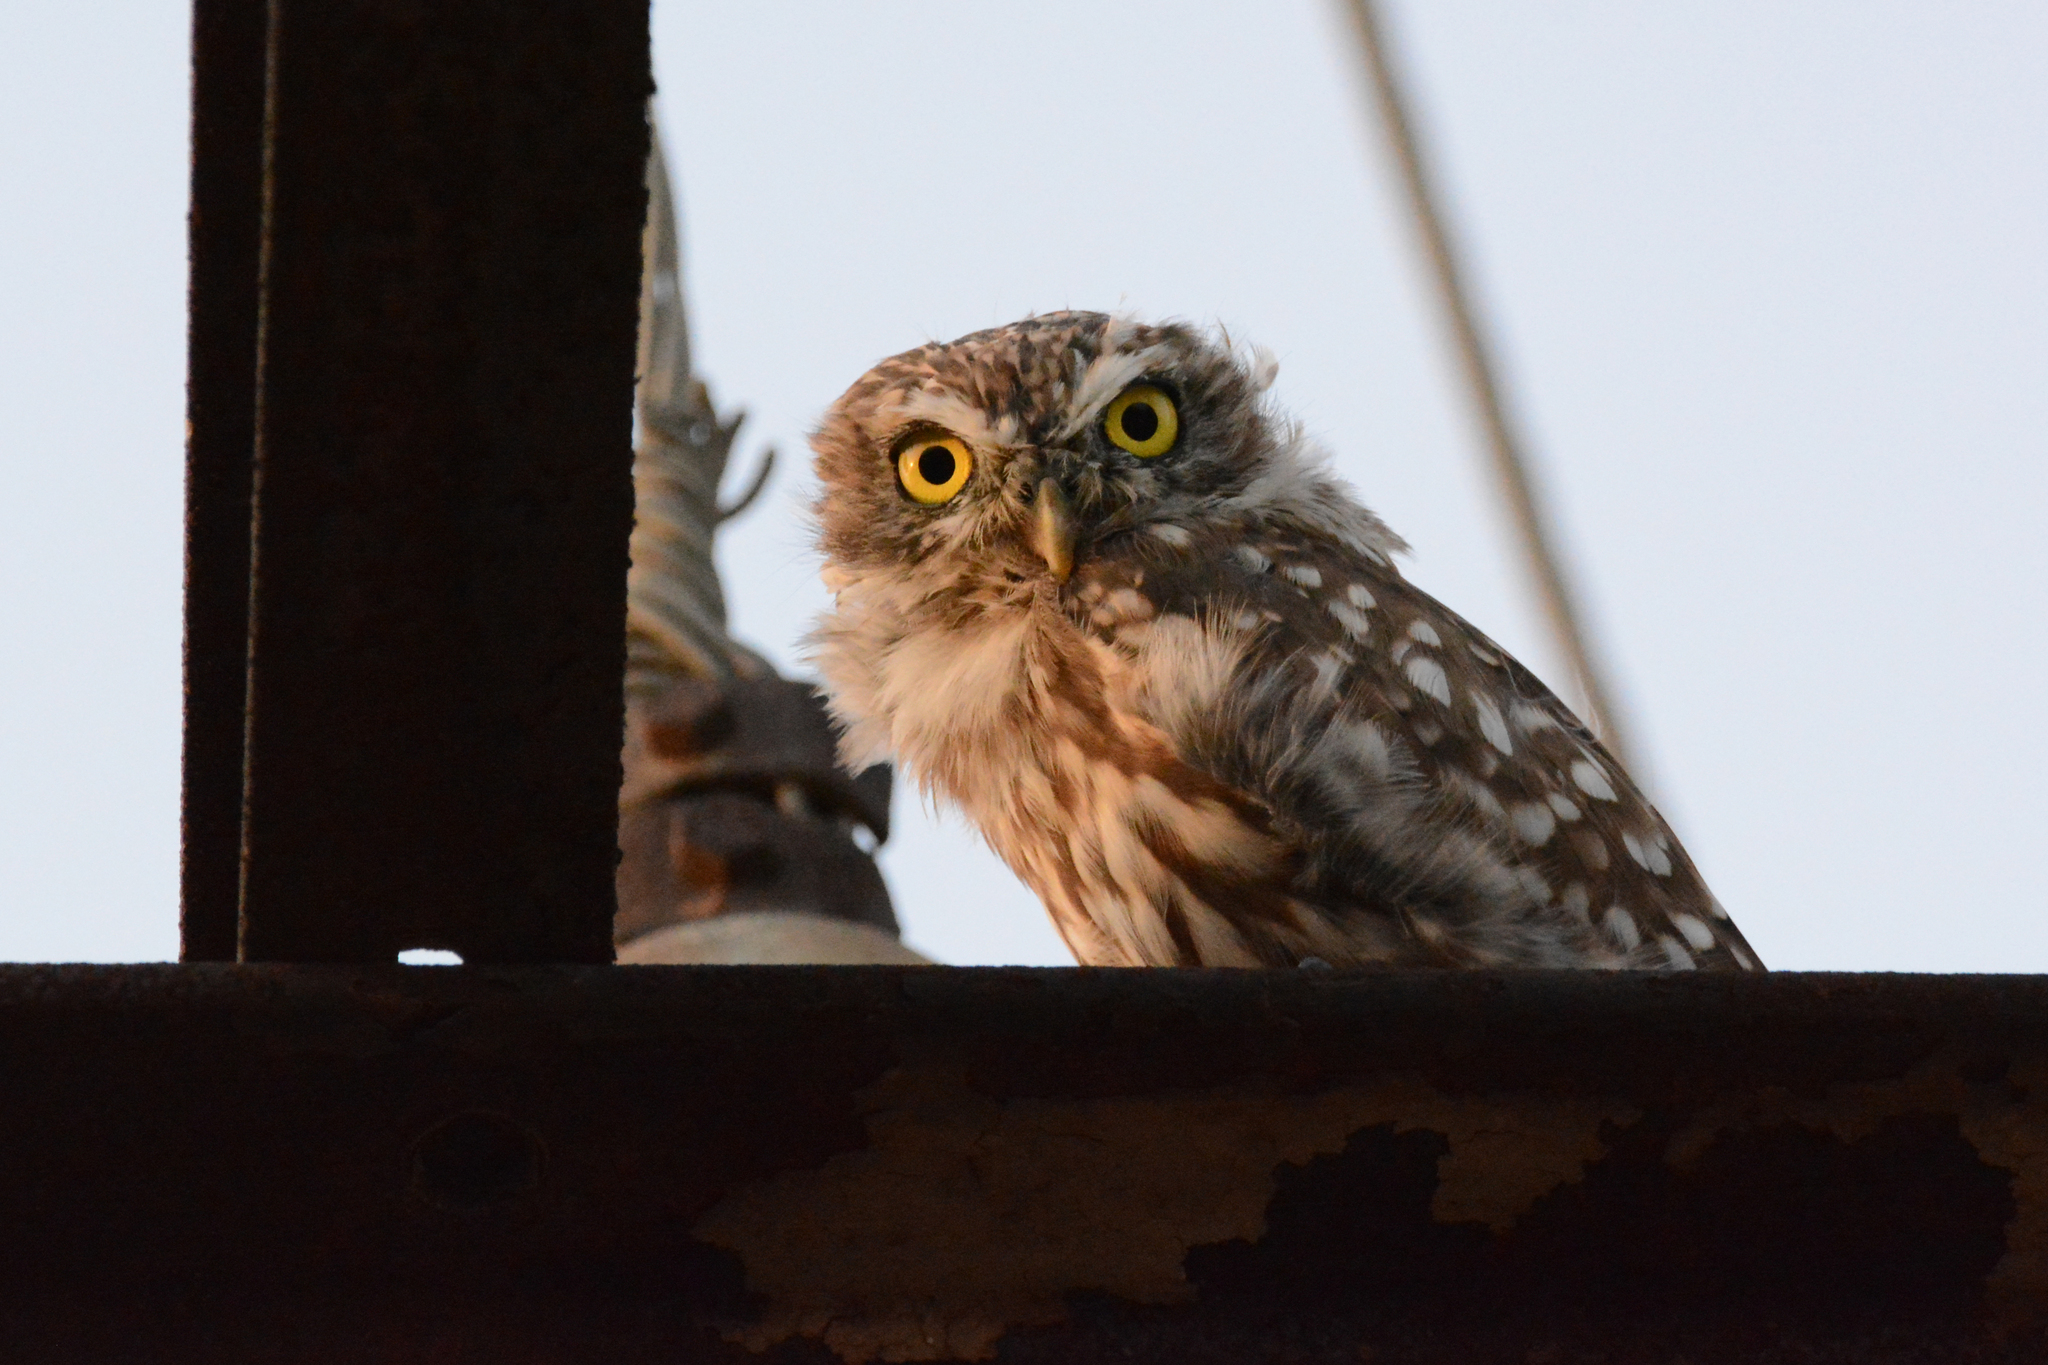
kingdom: Animalia
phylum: Chordata
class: Aves
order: Strigiformes
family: Strigidae
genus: Athene
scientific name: Athene noctua
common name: Little owl
